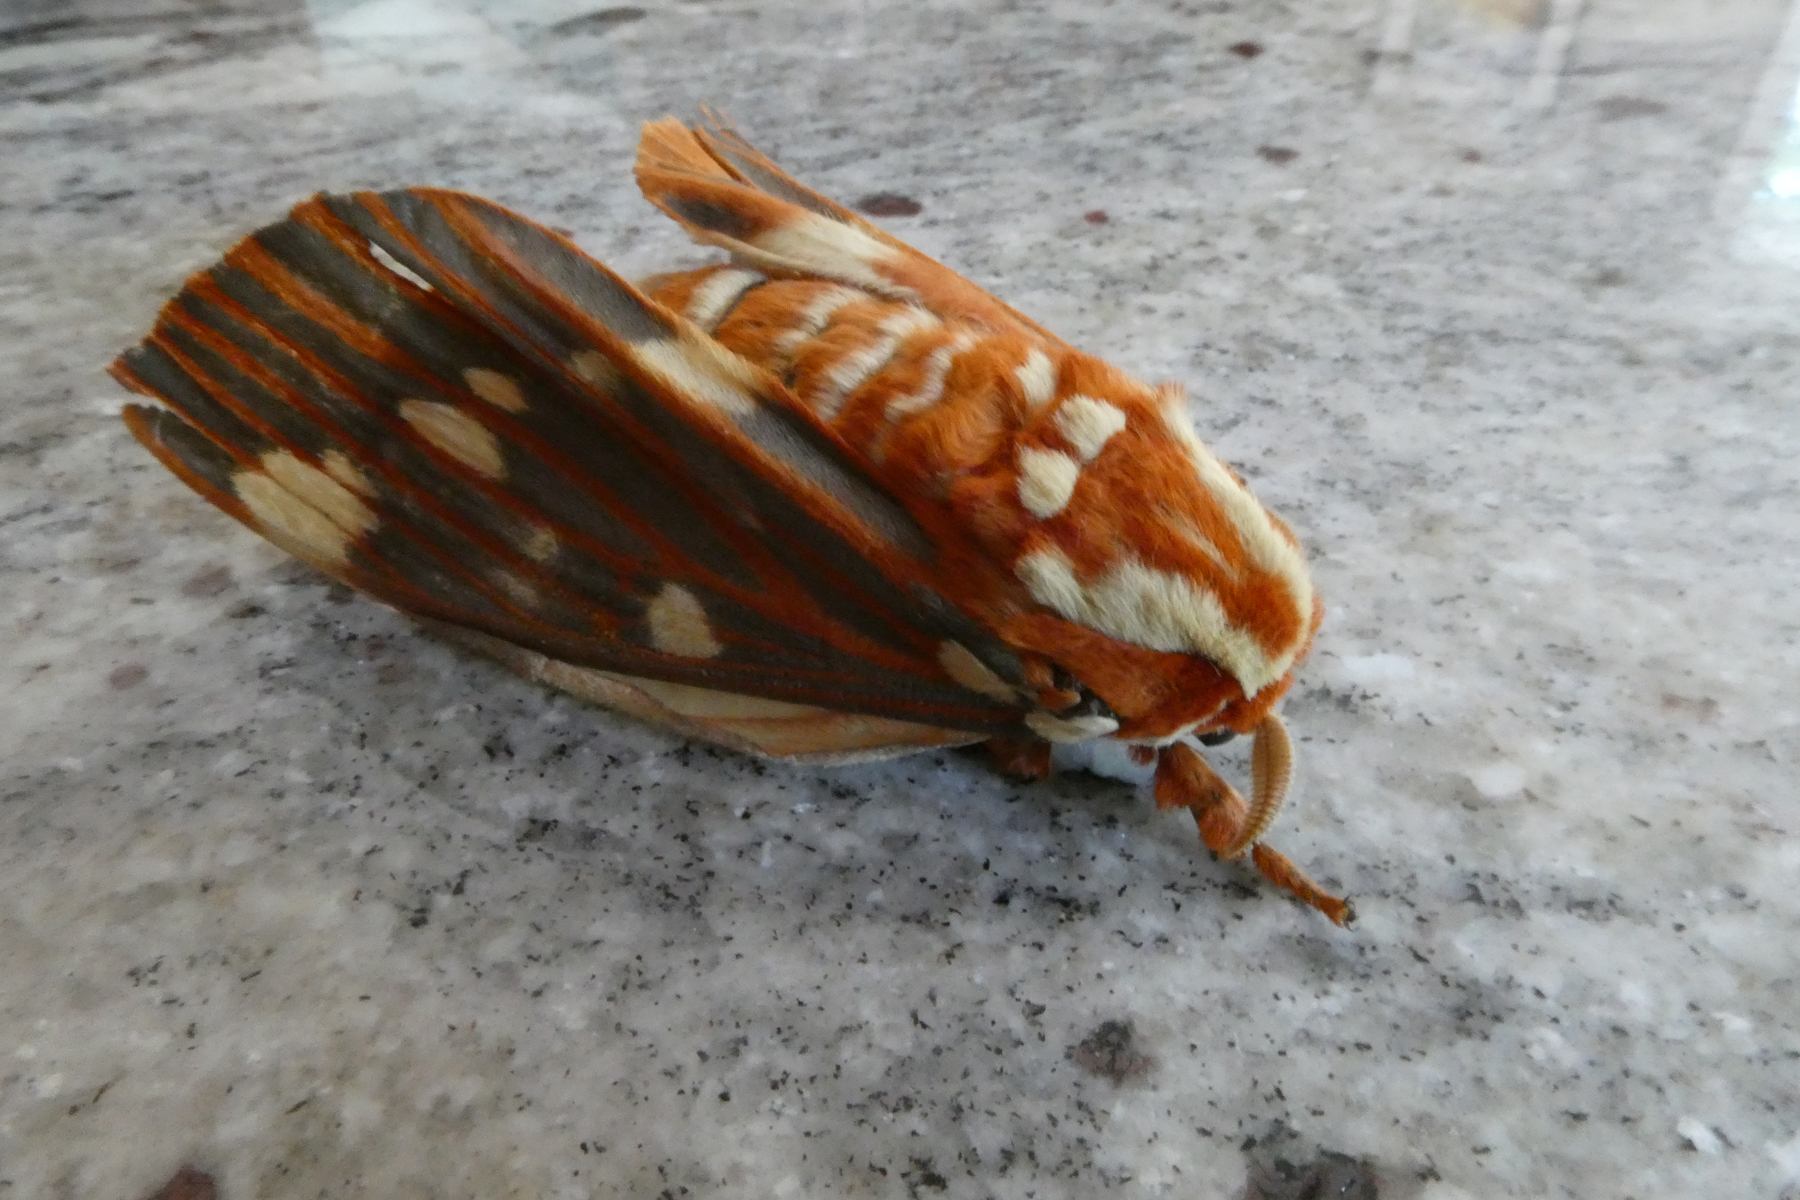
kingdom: Animalia
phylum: Arthropoda
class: Insecta
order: Lepidoptera
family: Saturniidae
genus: Citheronia
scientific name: Citheronia regalis
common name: Hickory horned devil
